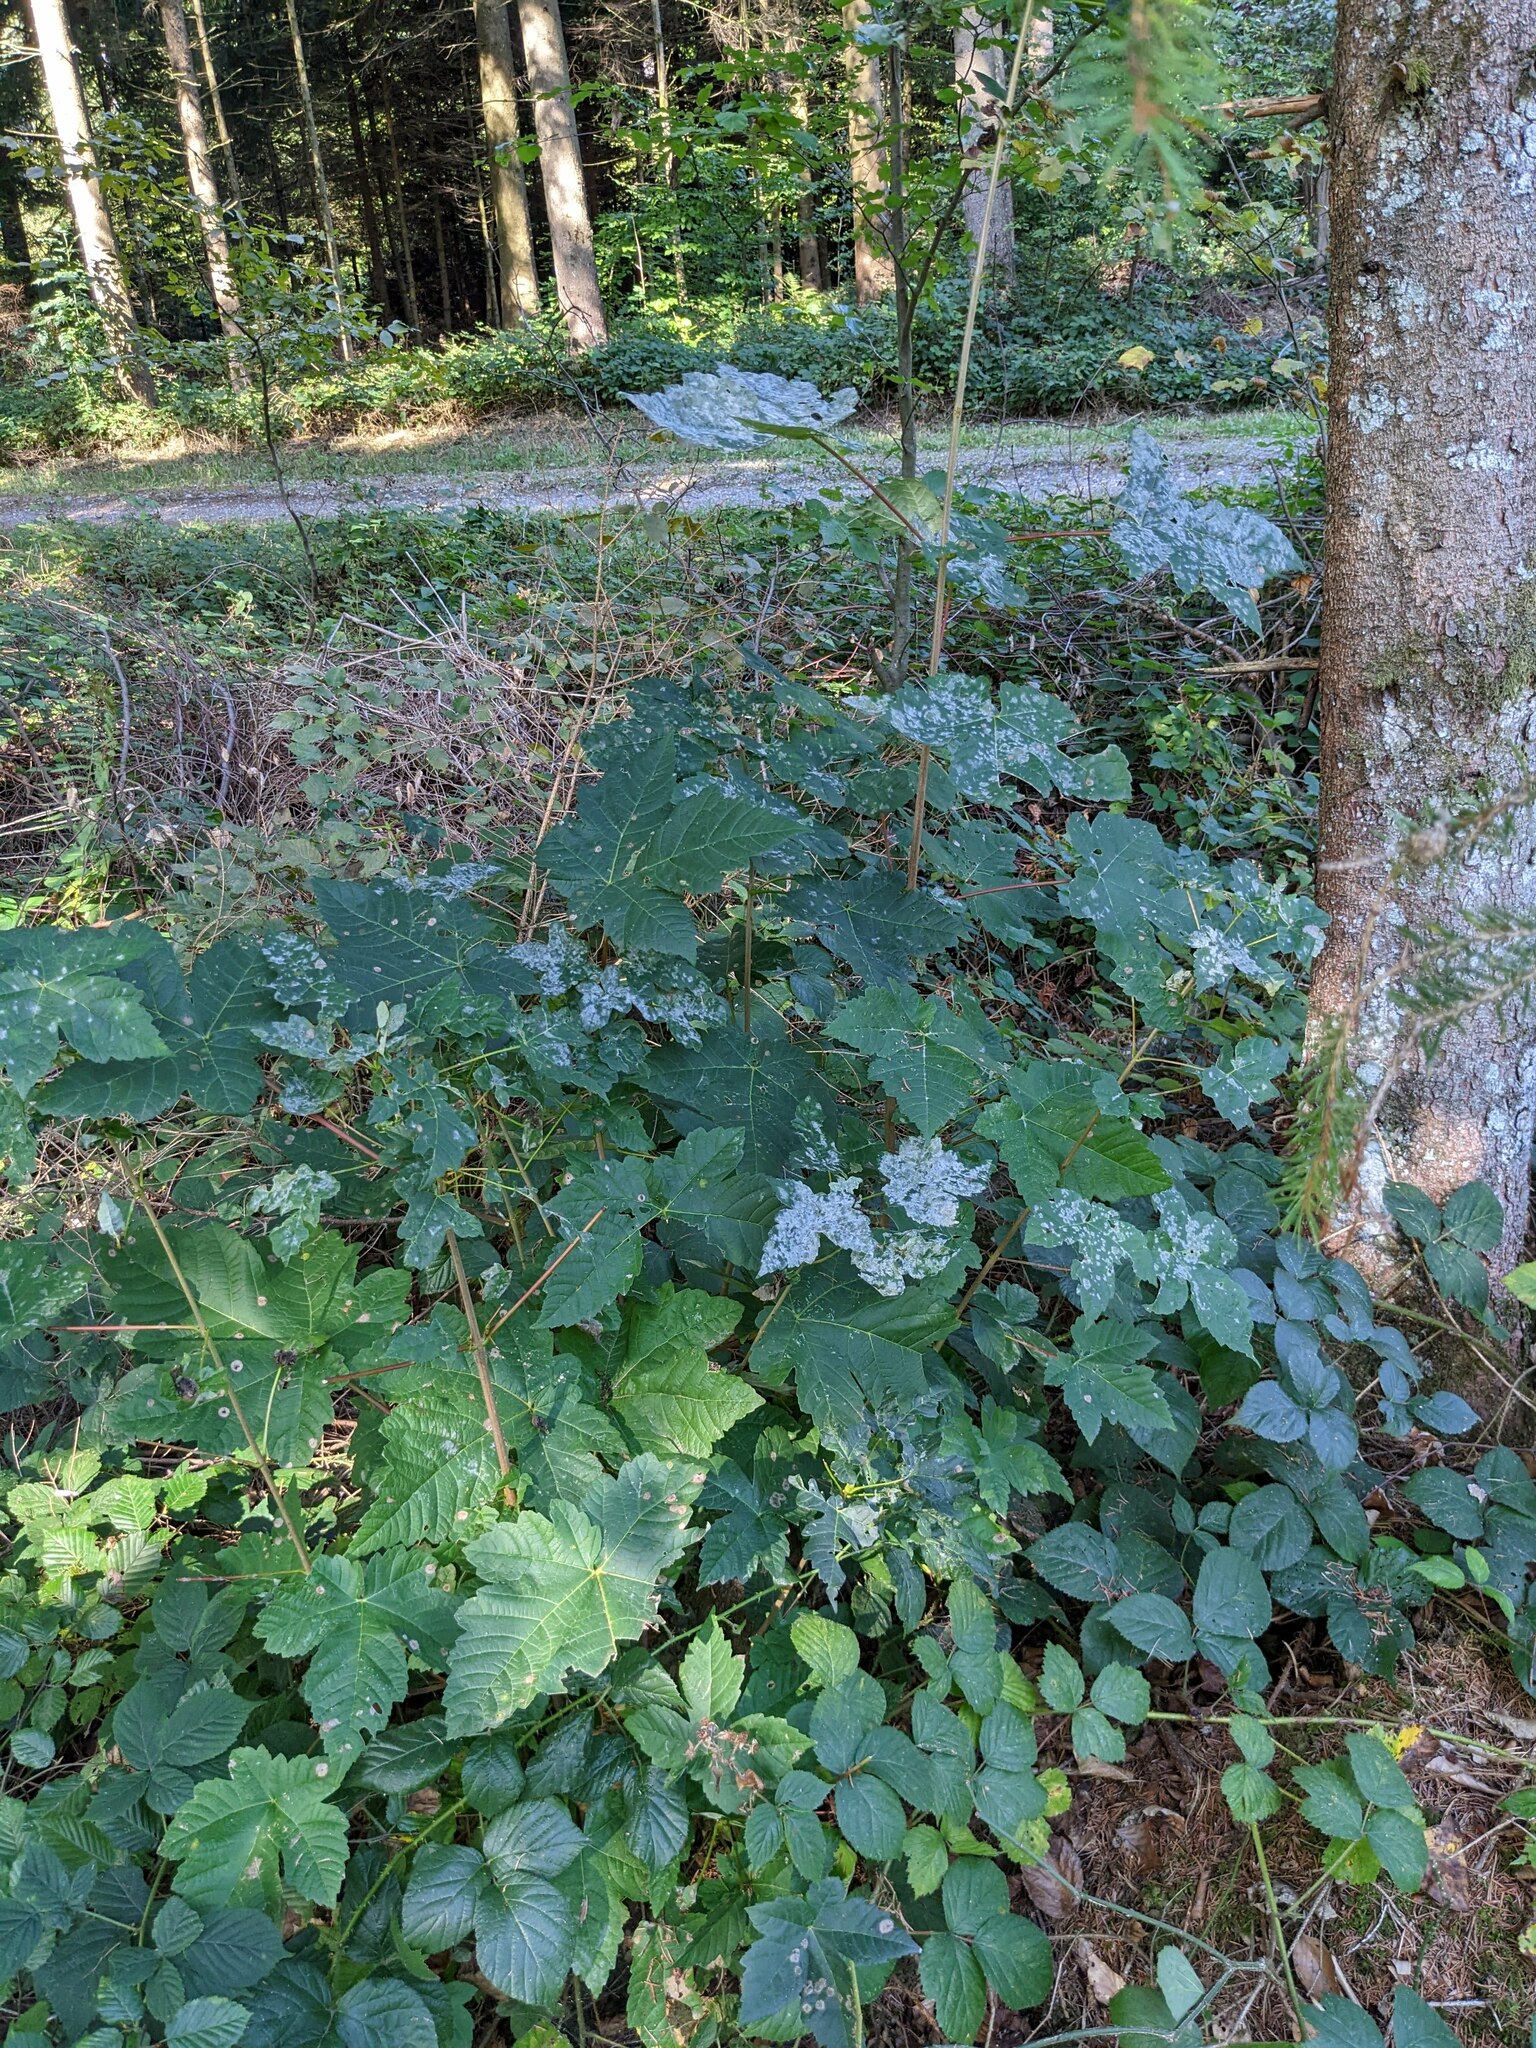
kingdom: Plantae
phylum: Tracheophyta
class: Magnoliopsida
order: Sapindales
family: Sapindaceae
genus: Acer
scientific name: Acer pseudoplatanus
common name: Sycamore
